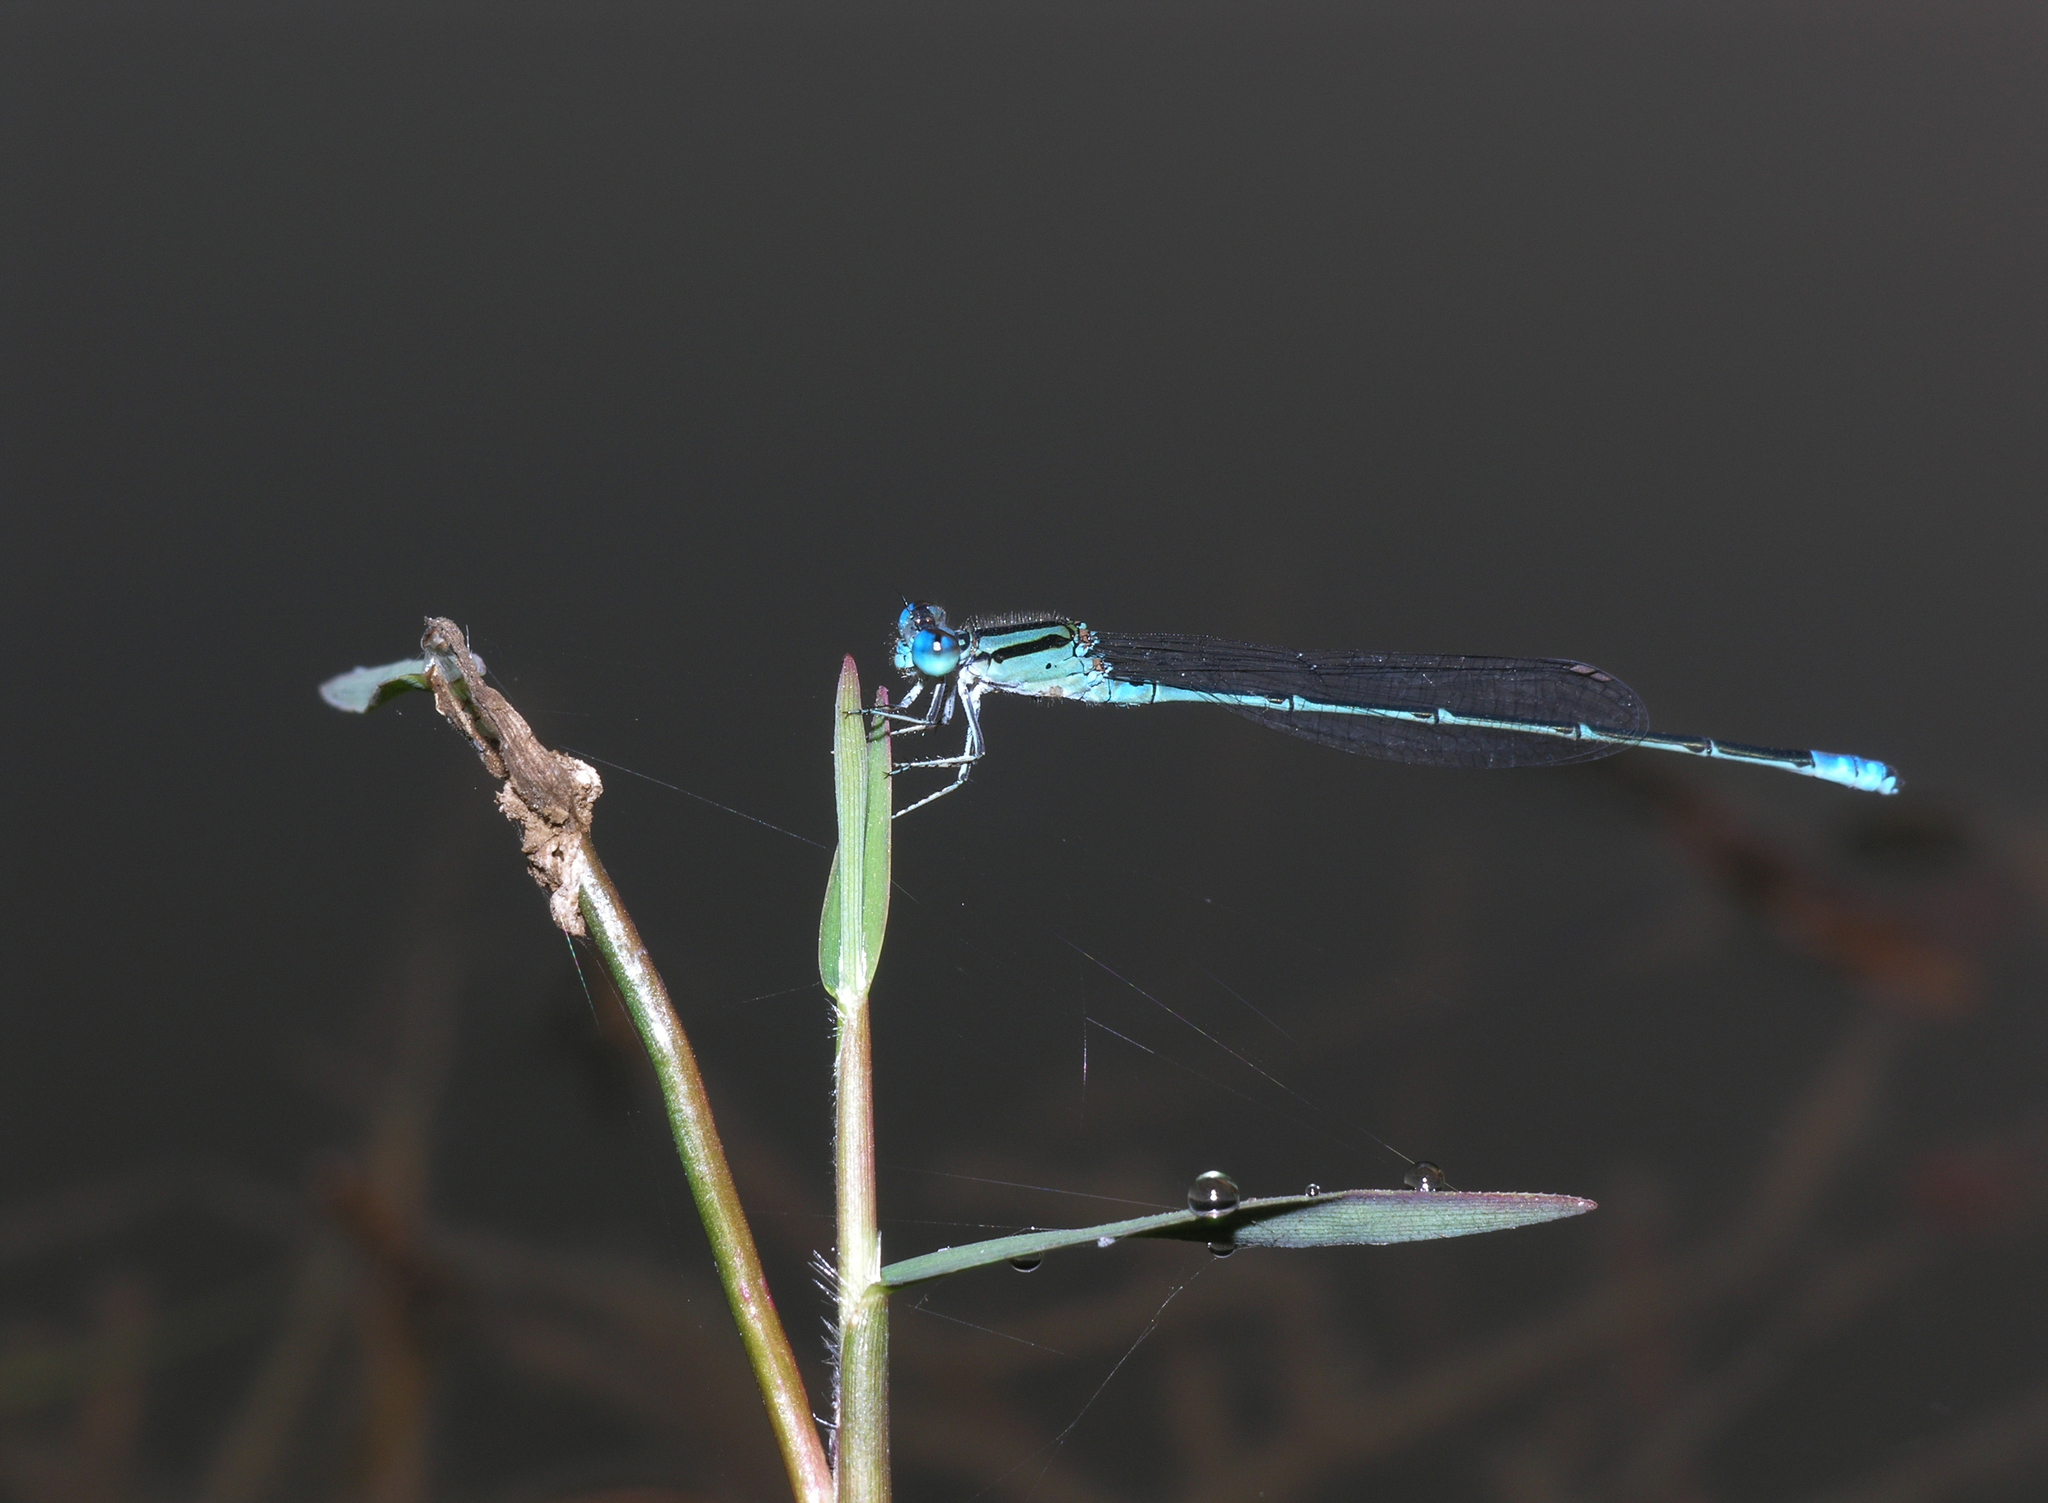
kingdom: Animalia
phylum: Arthropoda
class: Insecta
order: Odonata
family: Coenagrionidae
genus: Pseudagrion
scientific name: Pseudagrion australasiae
